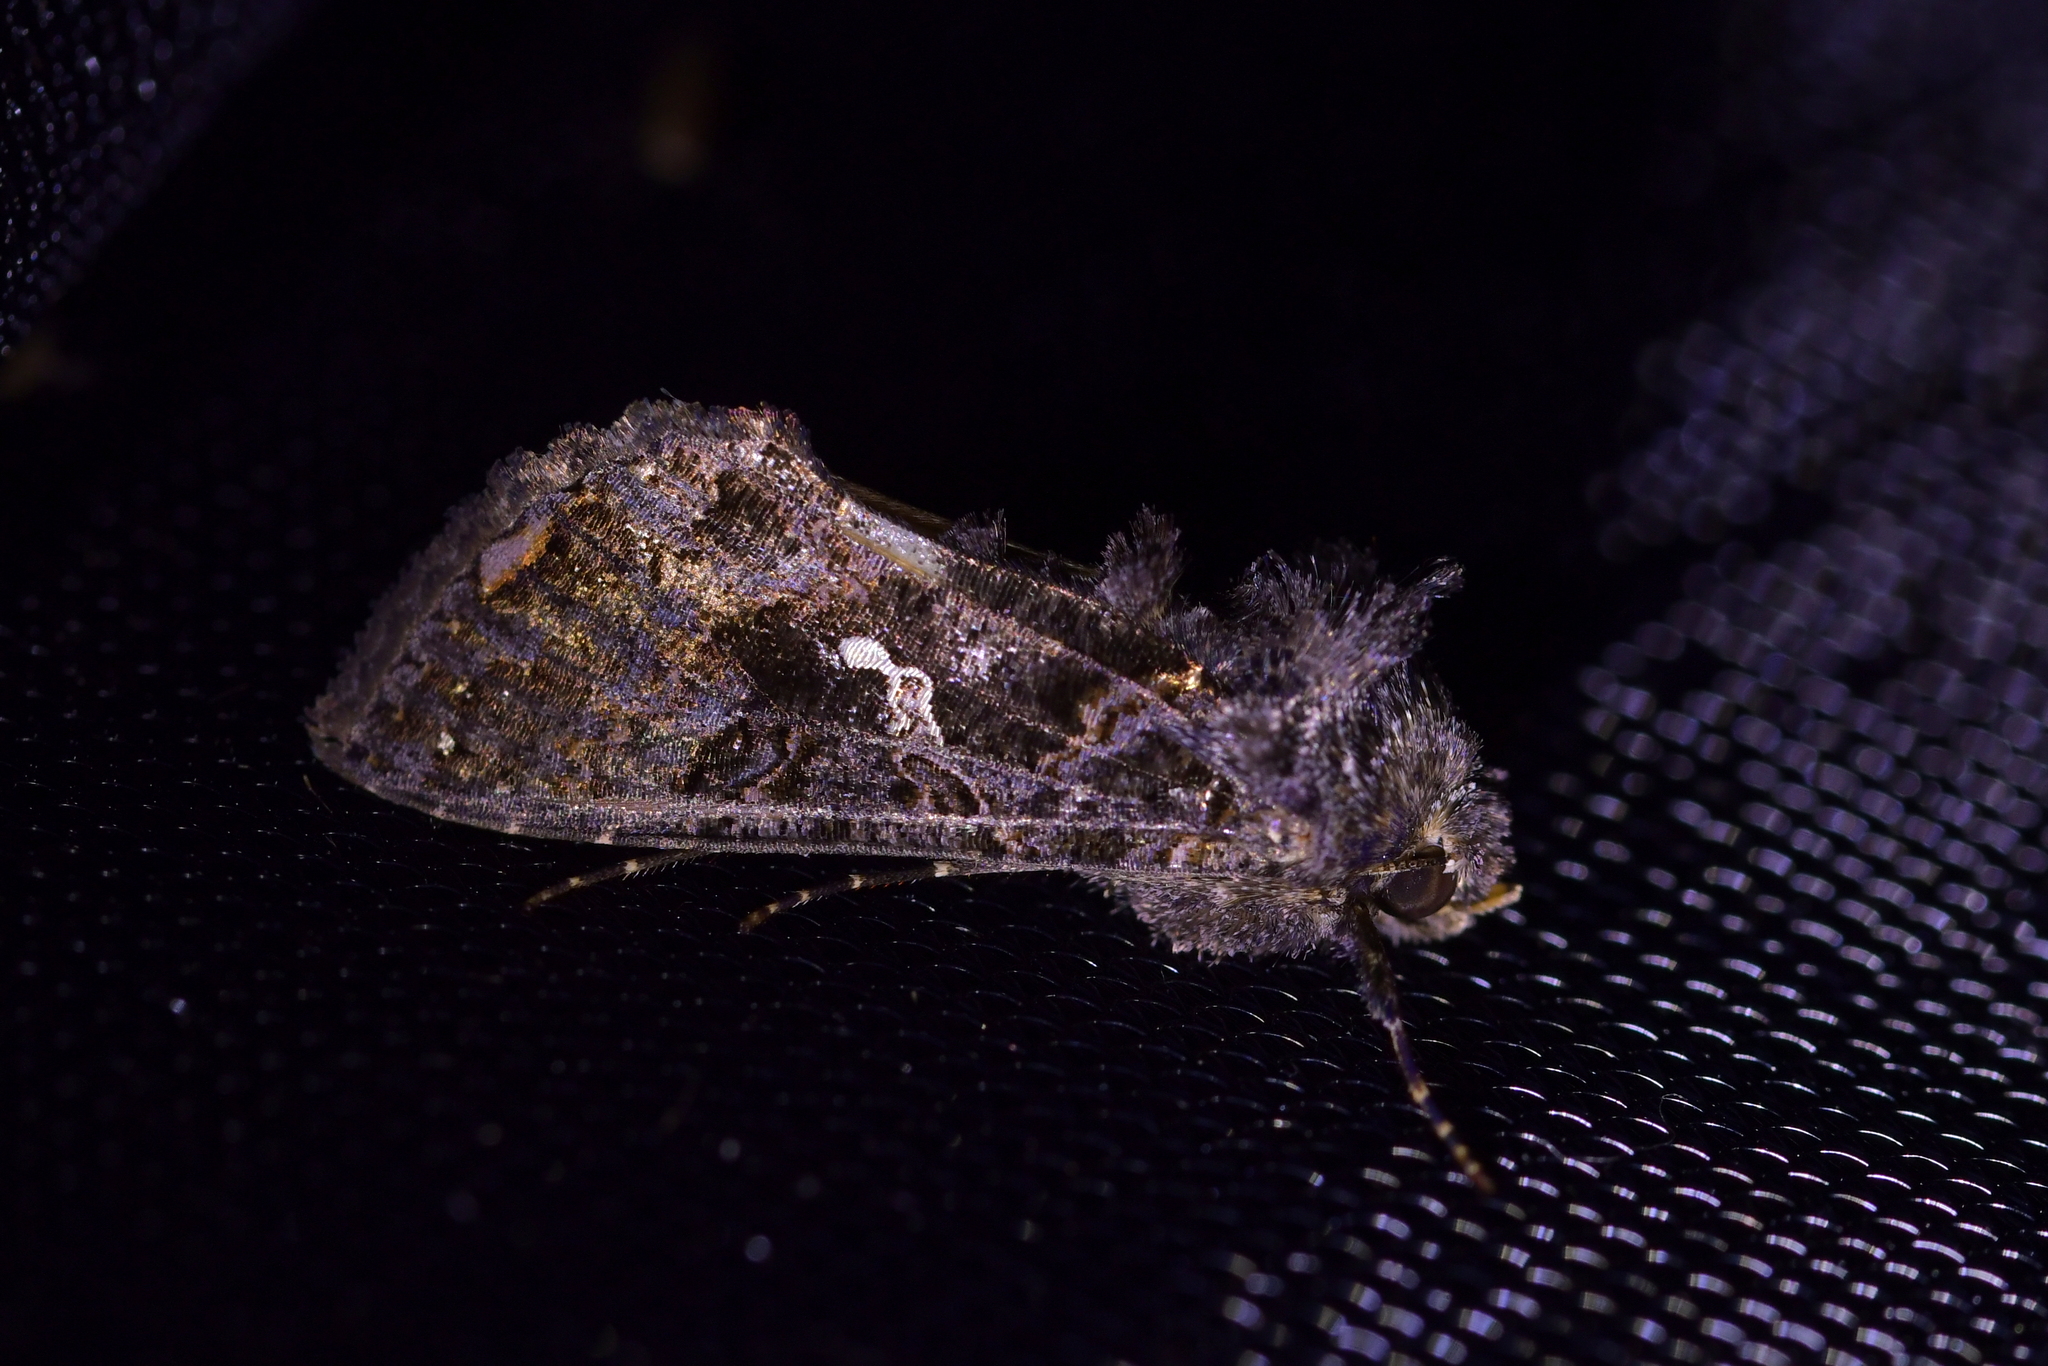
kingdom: Animalia
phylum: Arthropoda
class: Insecta
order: Lepidoptera
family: Noctuidae
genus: Ctenoplusia
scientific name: Ctenoplusia limbirena
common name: Scar bank gem
